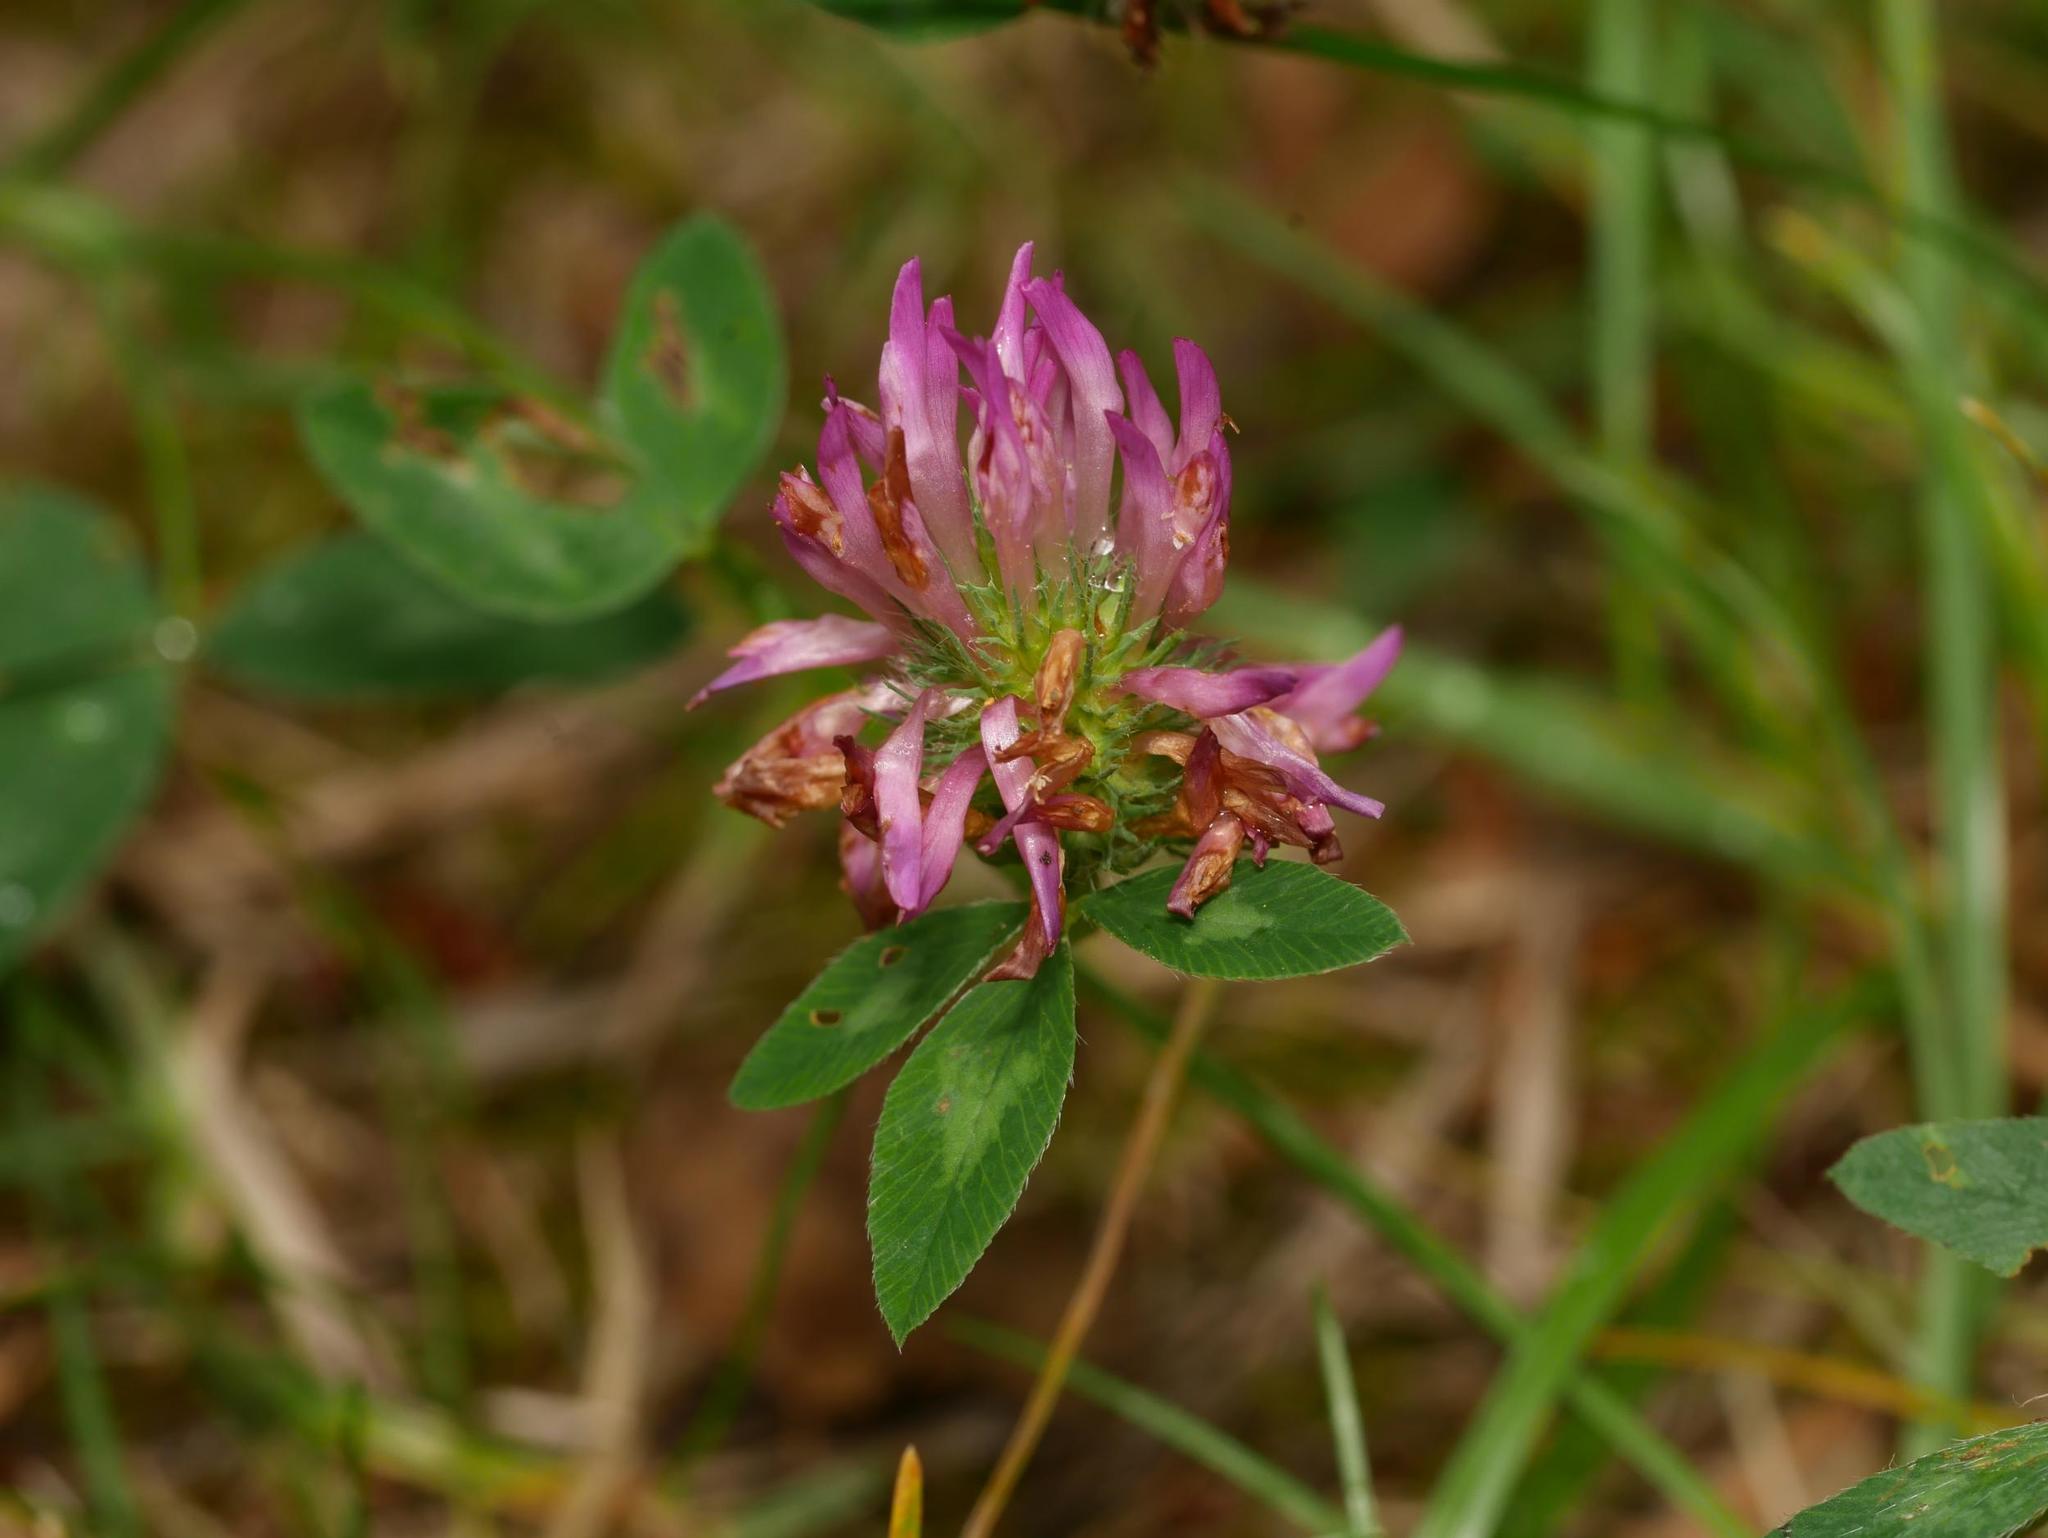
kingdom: Plantae
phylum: Tracheophyta
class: Magnoliopsida
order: Fabales
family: Fabaceae
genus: Trifolium
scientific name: Trifolium pratense
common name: Red clover
